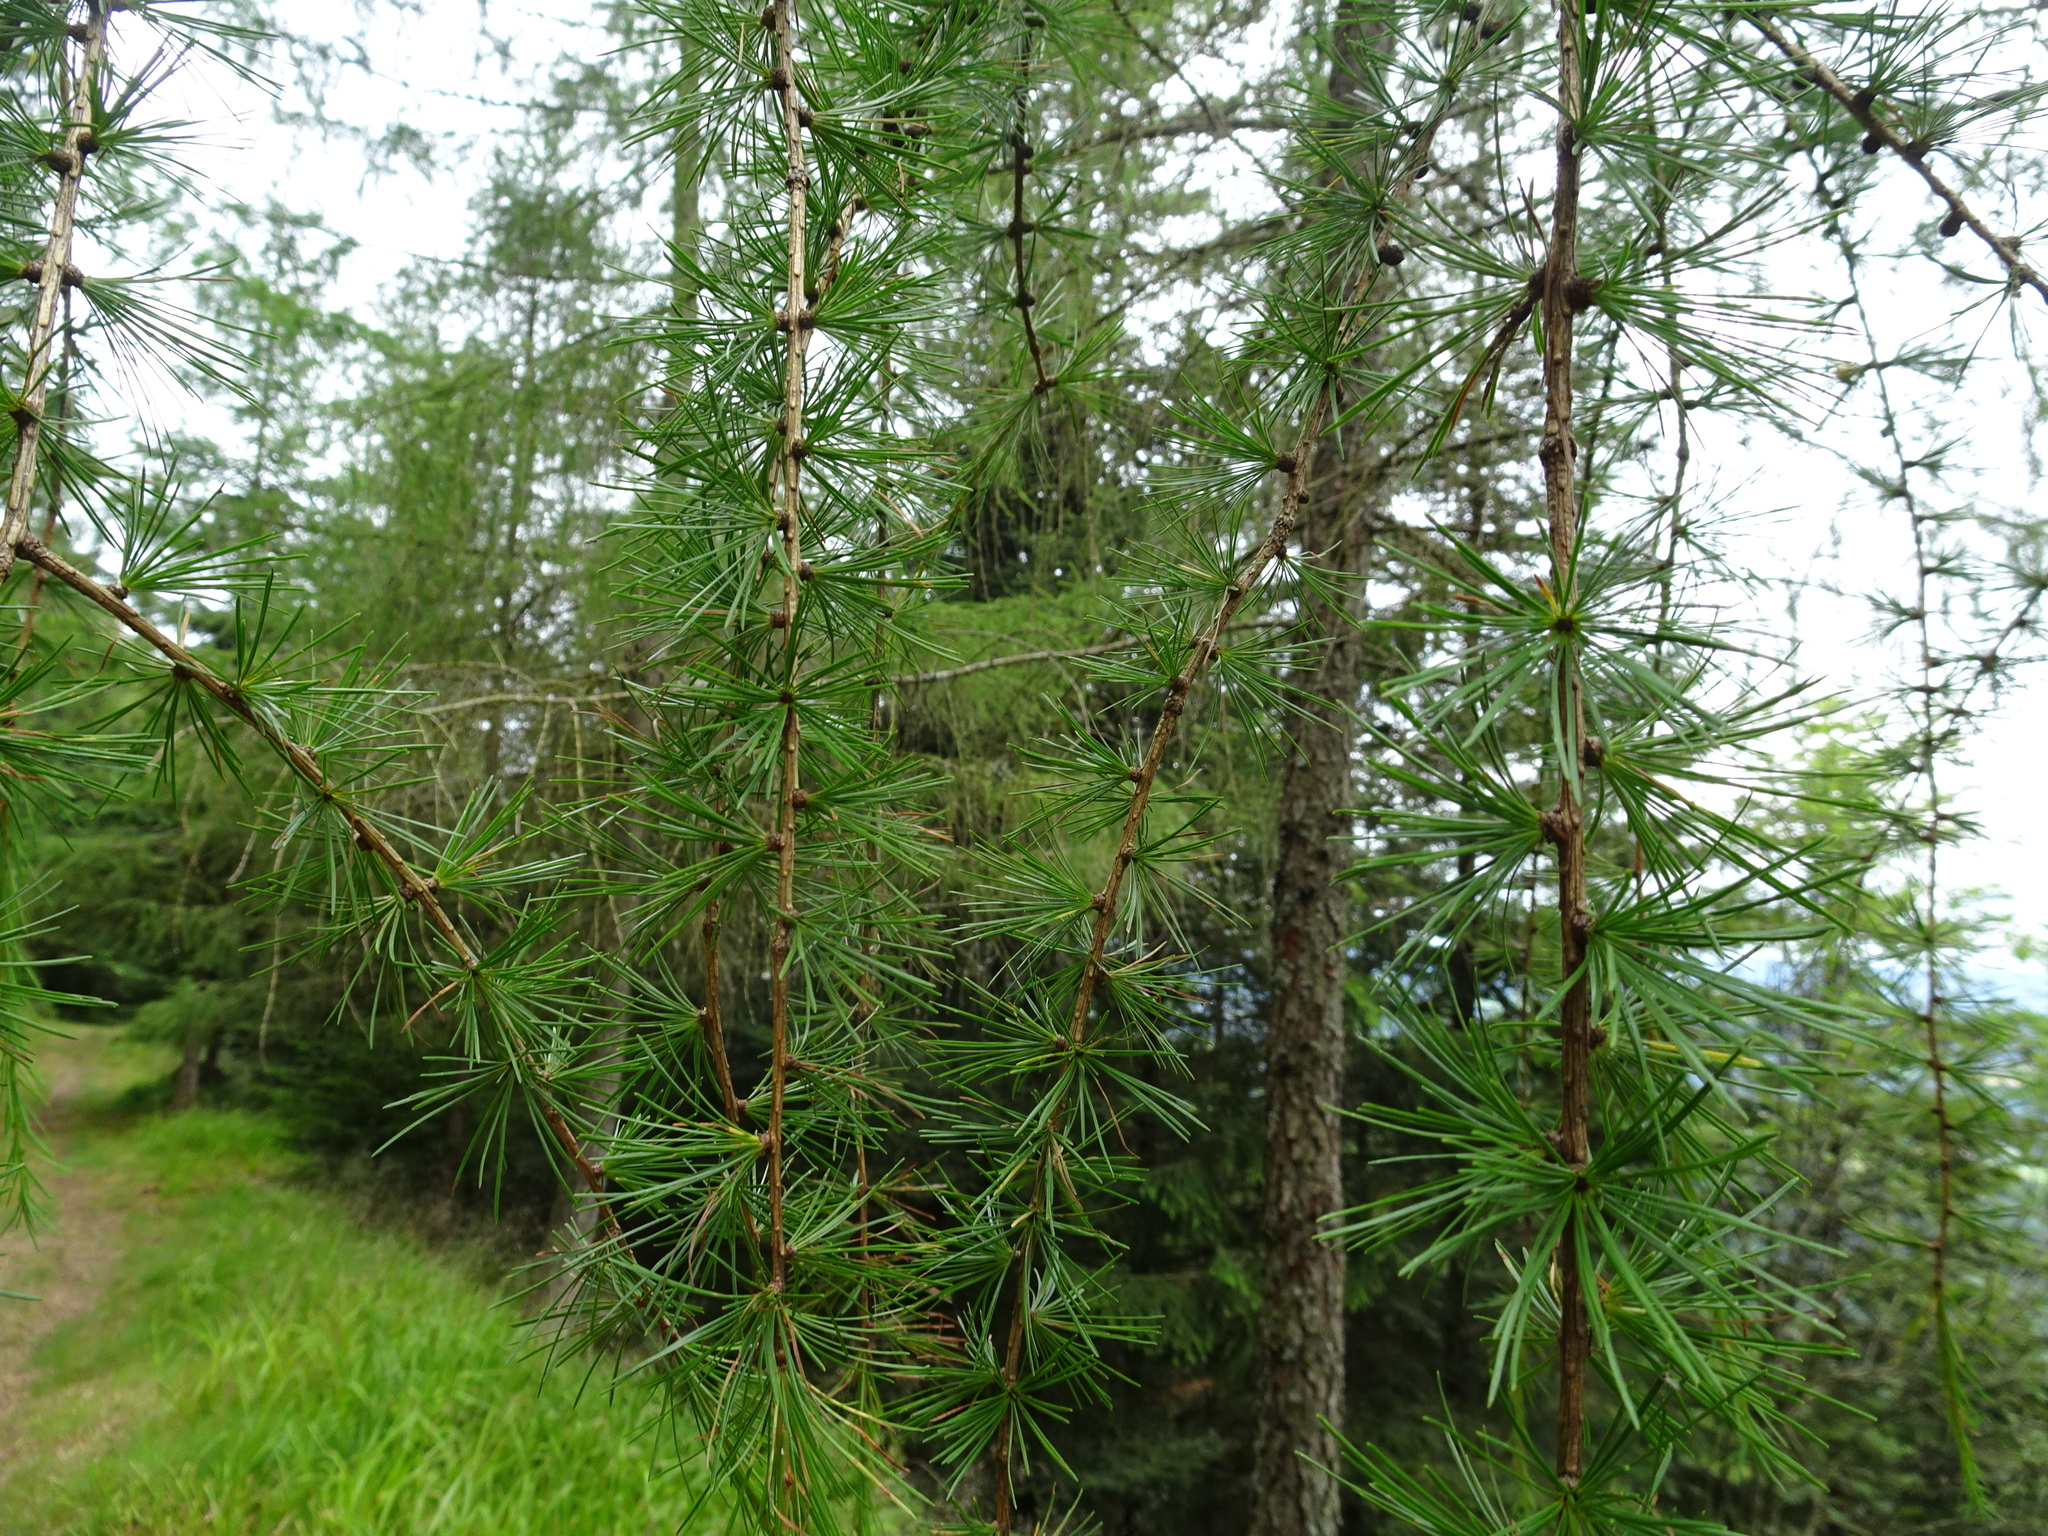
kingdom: Plantae
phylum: Tracheophyta
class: Pinopsida
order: Pinales
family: Pinaceae
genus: Larix
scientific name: Larix decidua
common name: European larch
